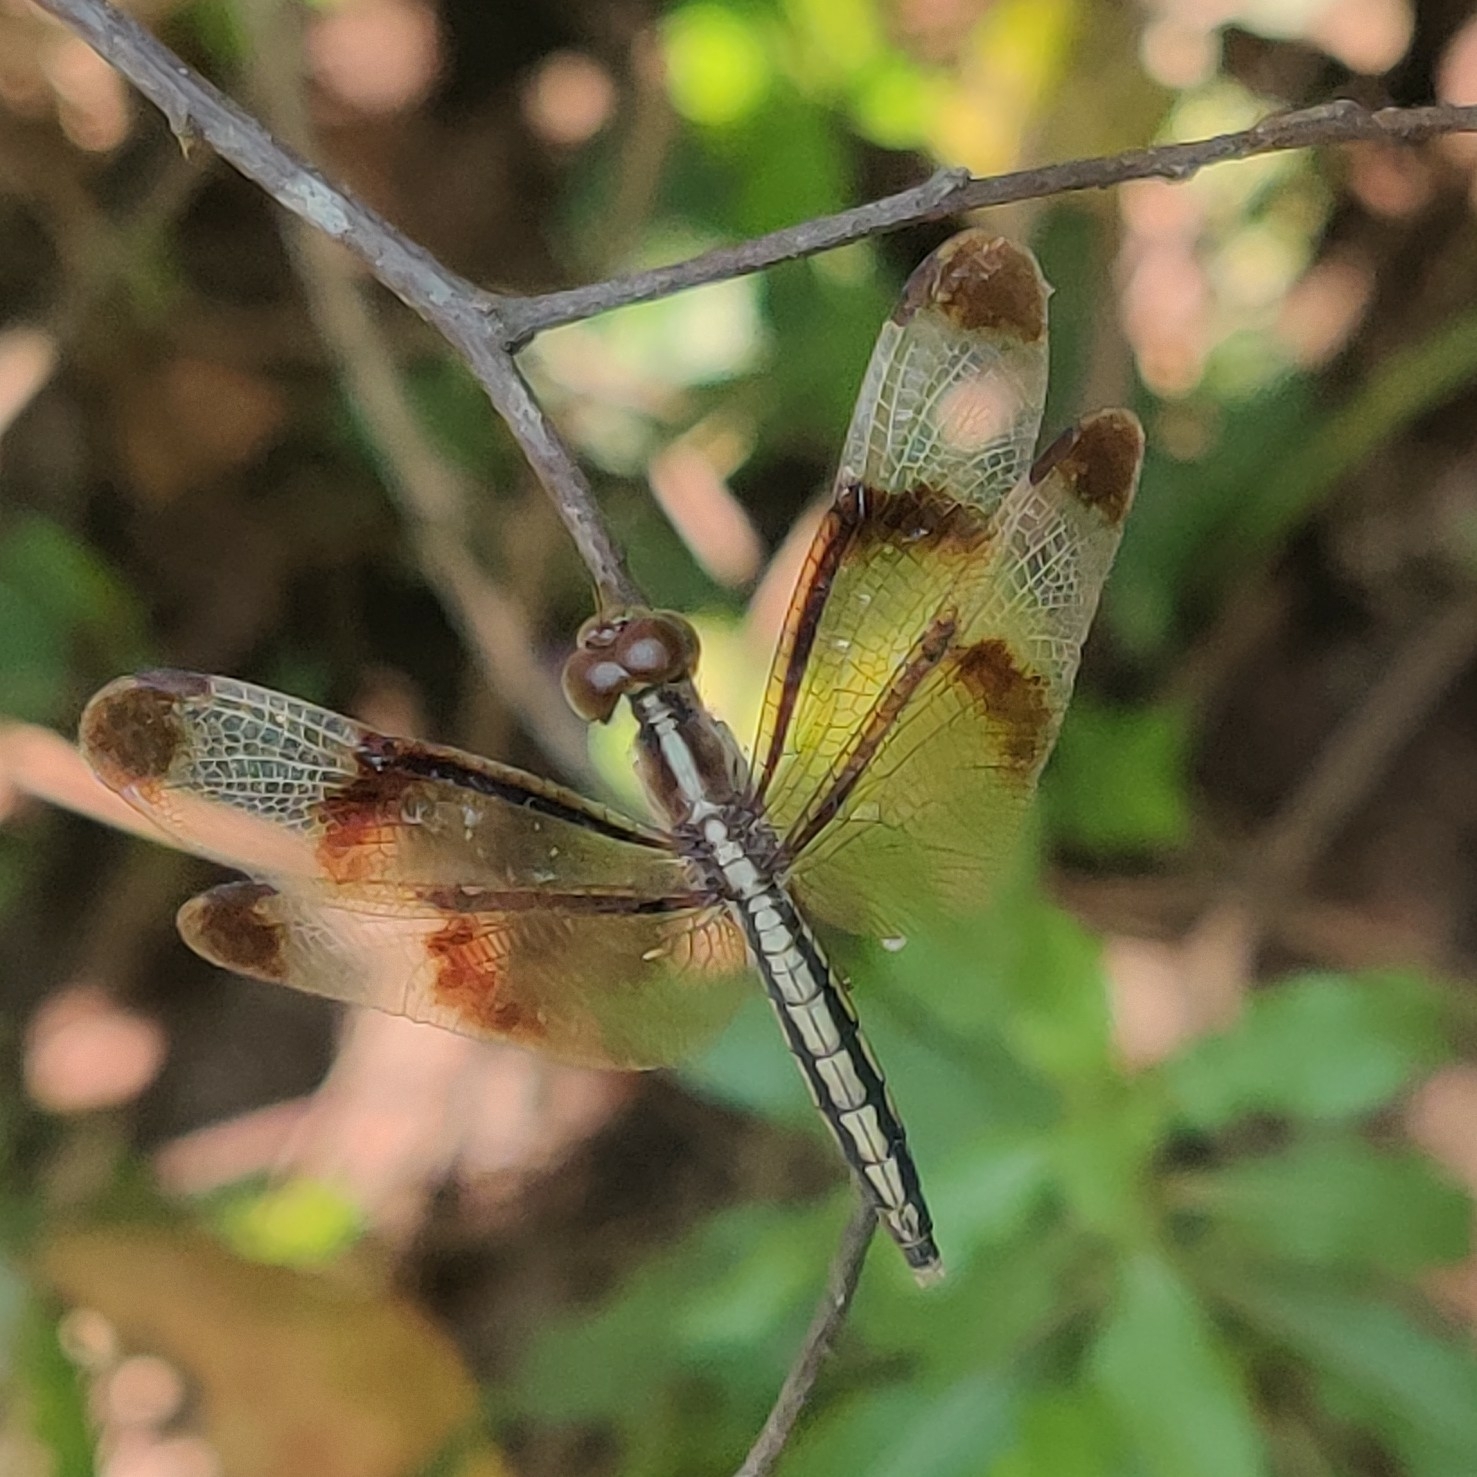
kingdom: Animalia
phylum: Arthropoda
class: Insecta
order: Odonata
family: Libellulidae
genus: Neurothemis
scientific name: Neurothemis tullia
